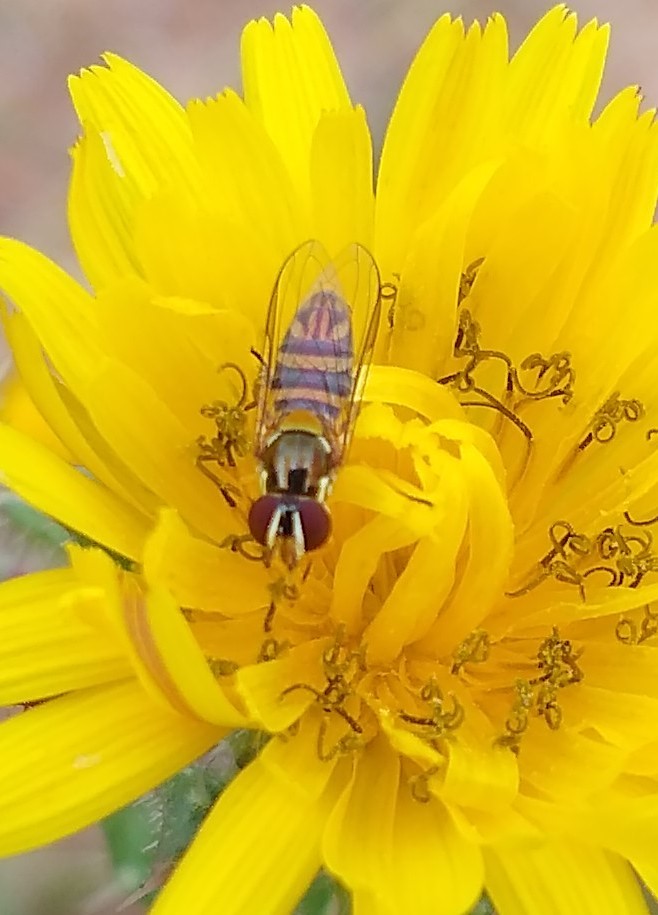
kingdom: Animalia
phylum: Arthropoda
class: Insecta
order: Diptera
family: Syrphidae
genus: Allograpta
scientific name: Allograpta
